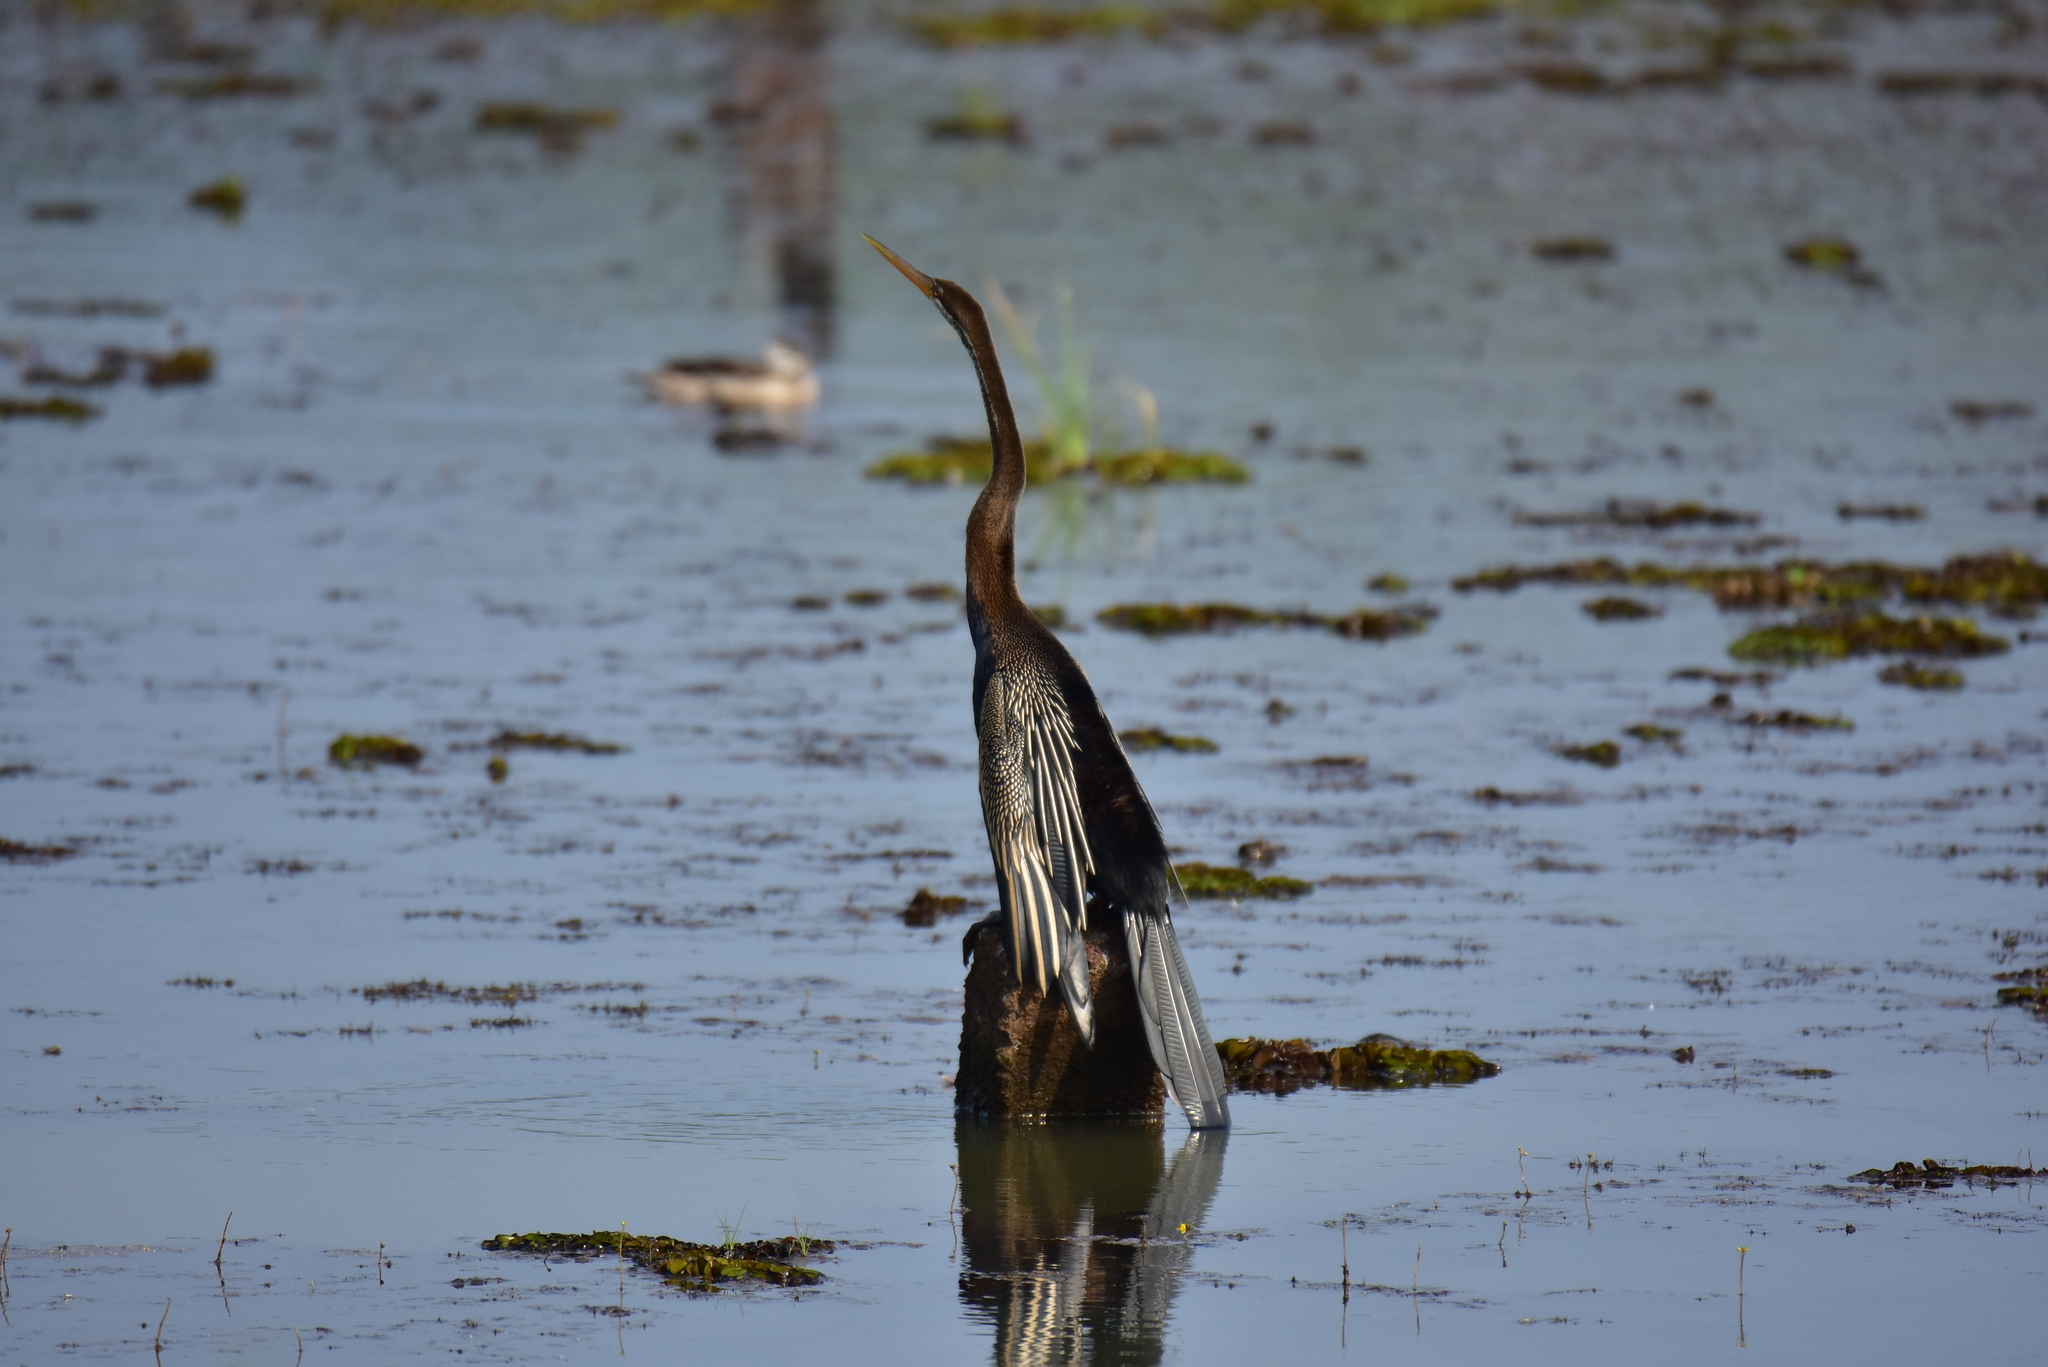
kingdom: Animalia
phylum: Chordata
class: Aves
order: Suliformes
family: Anhingidae
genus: Anhinga
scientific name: Anhinga melanogaster
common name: Oriental darter
